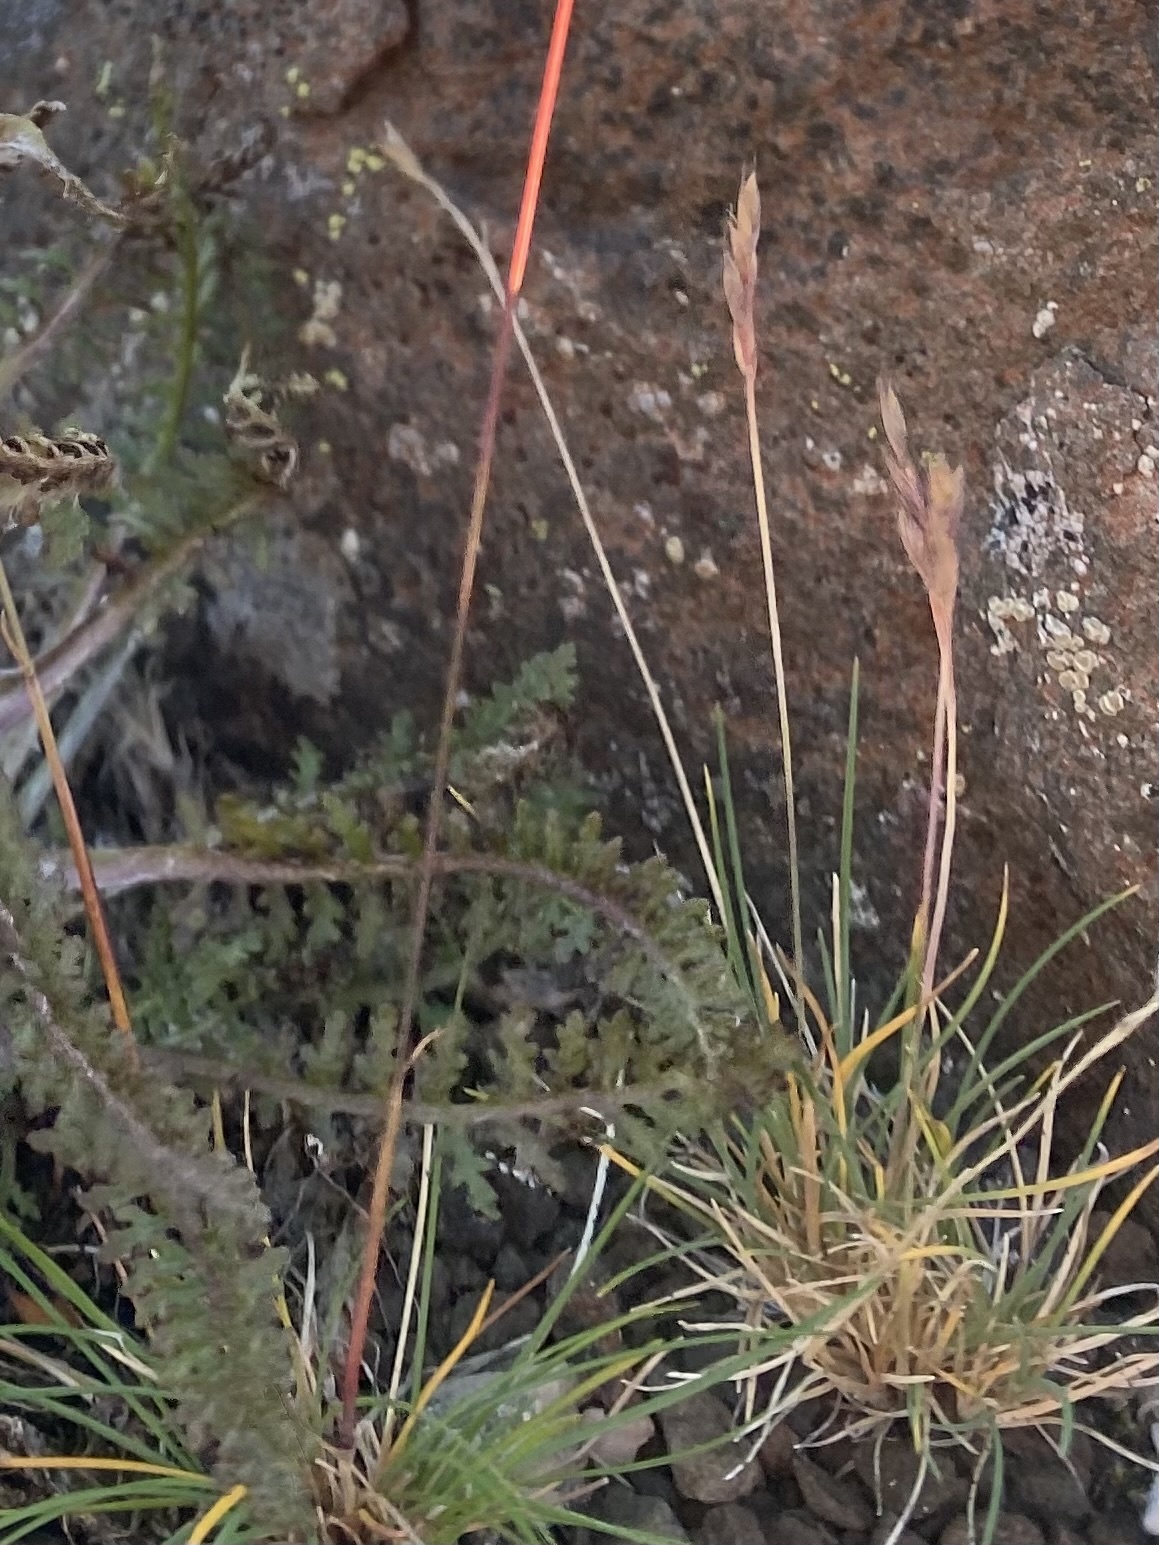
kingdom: Plantae
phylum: Tracheophyta
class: Liliopsida
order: Poales
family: Poaceae
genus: Festuca
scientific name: Festuca brachyphylla
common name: Alpine fescue
